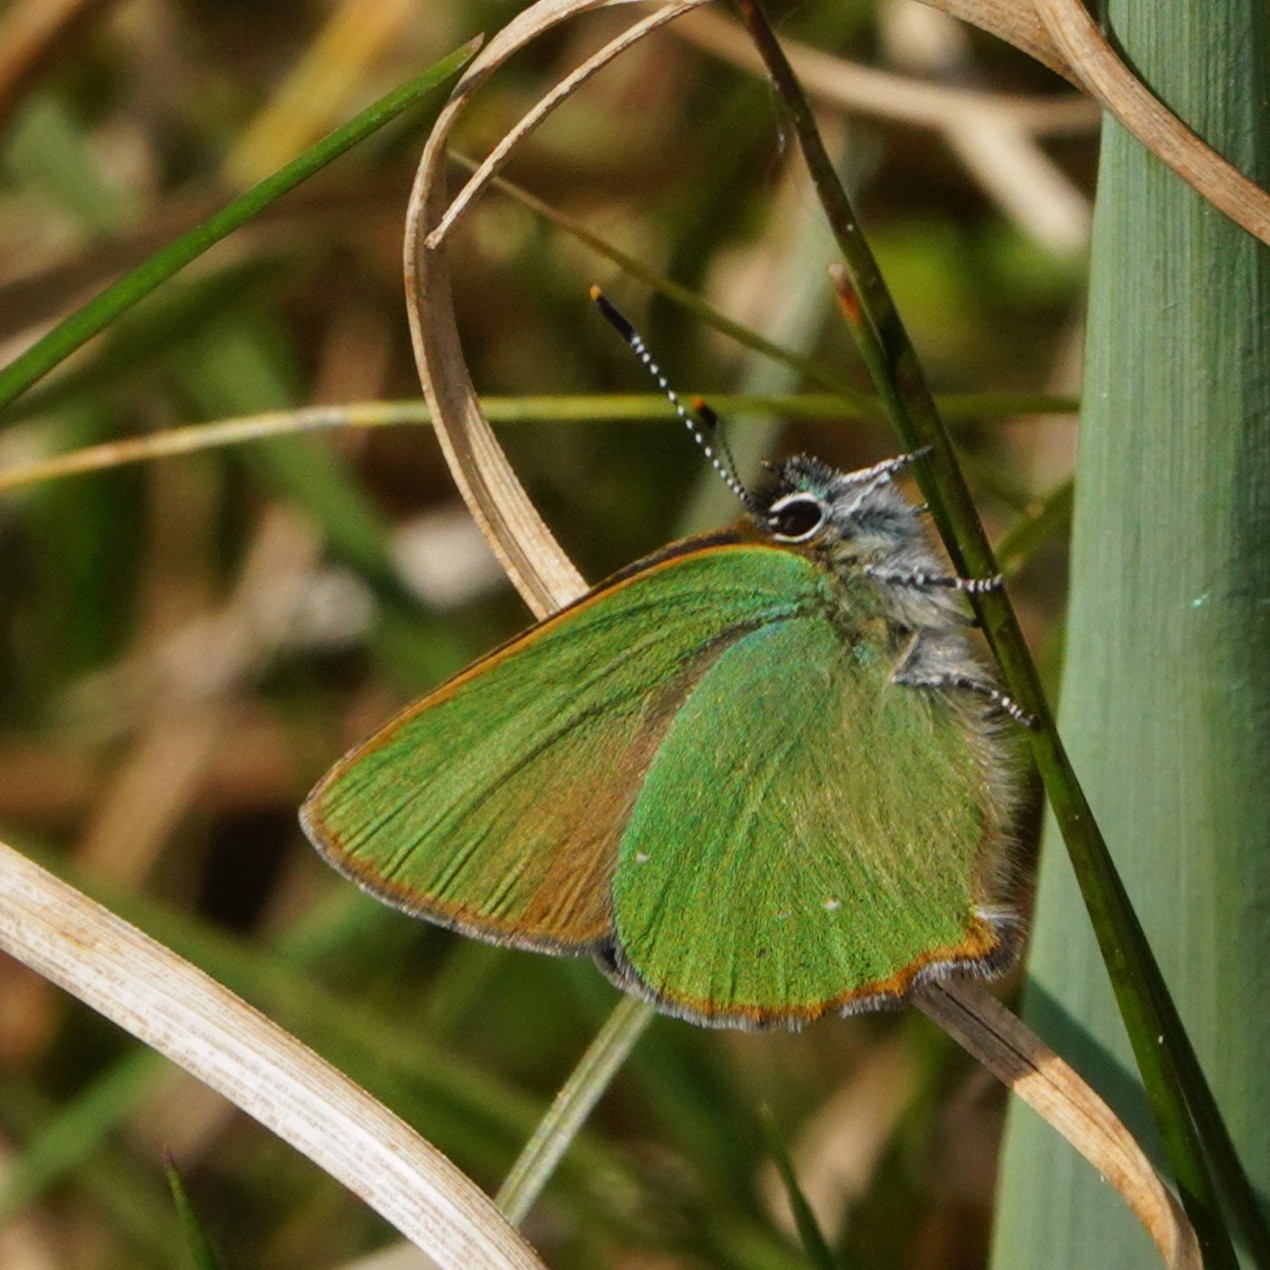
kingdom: Animalia
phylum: Arthropoda
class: Insecta
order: Lepidoptera
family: Lycaenidae
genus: Callophrys
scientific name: Callophrys rubi
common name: Green hairstreak
